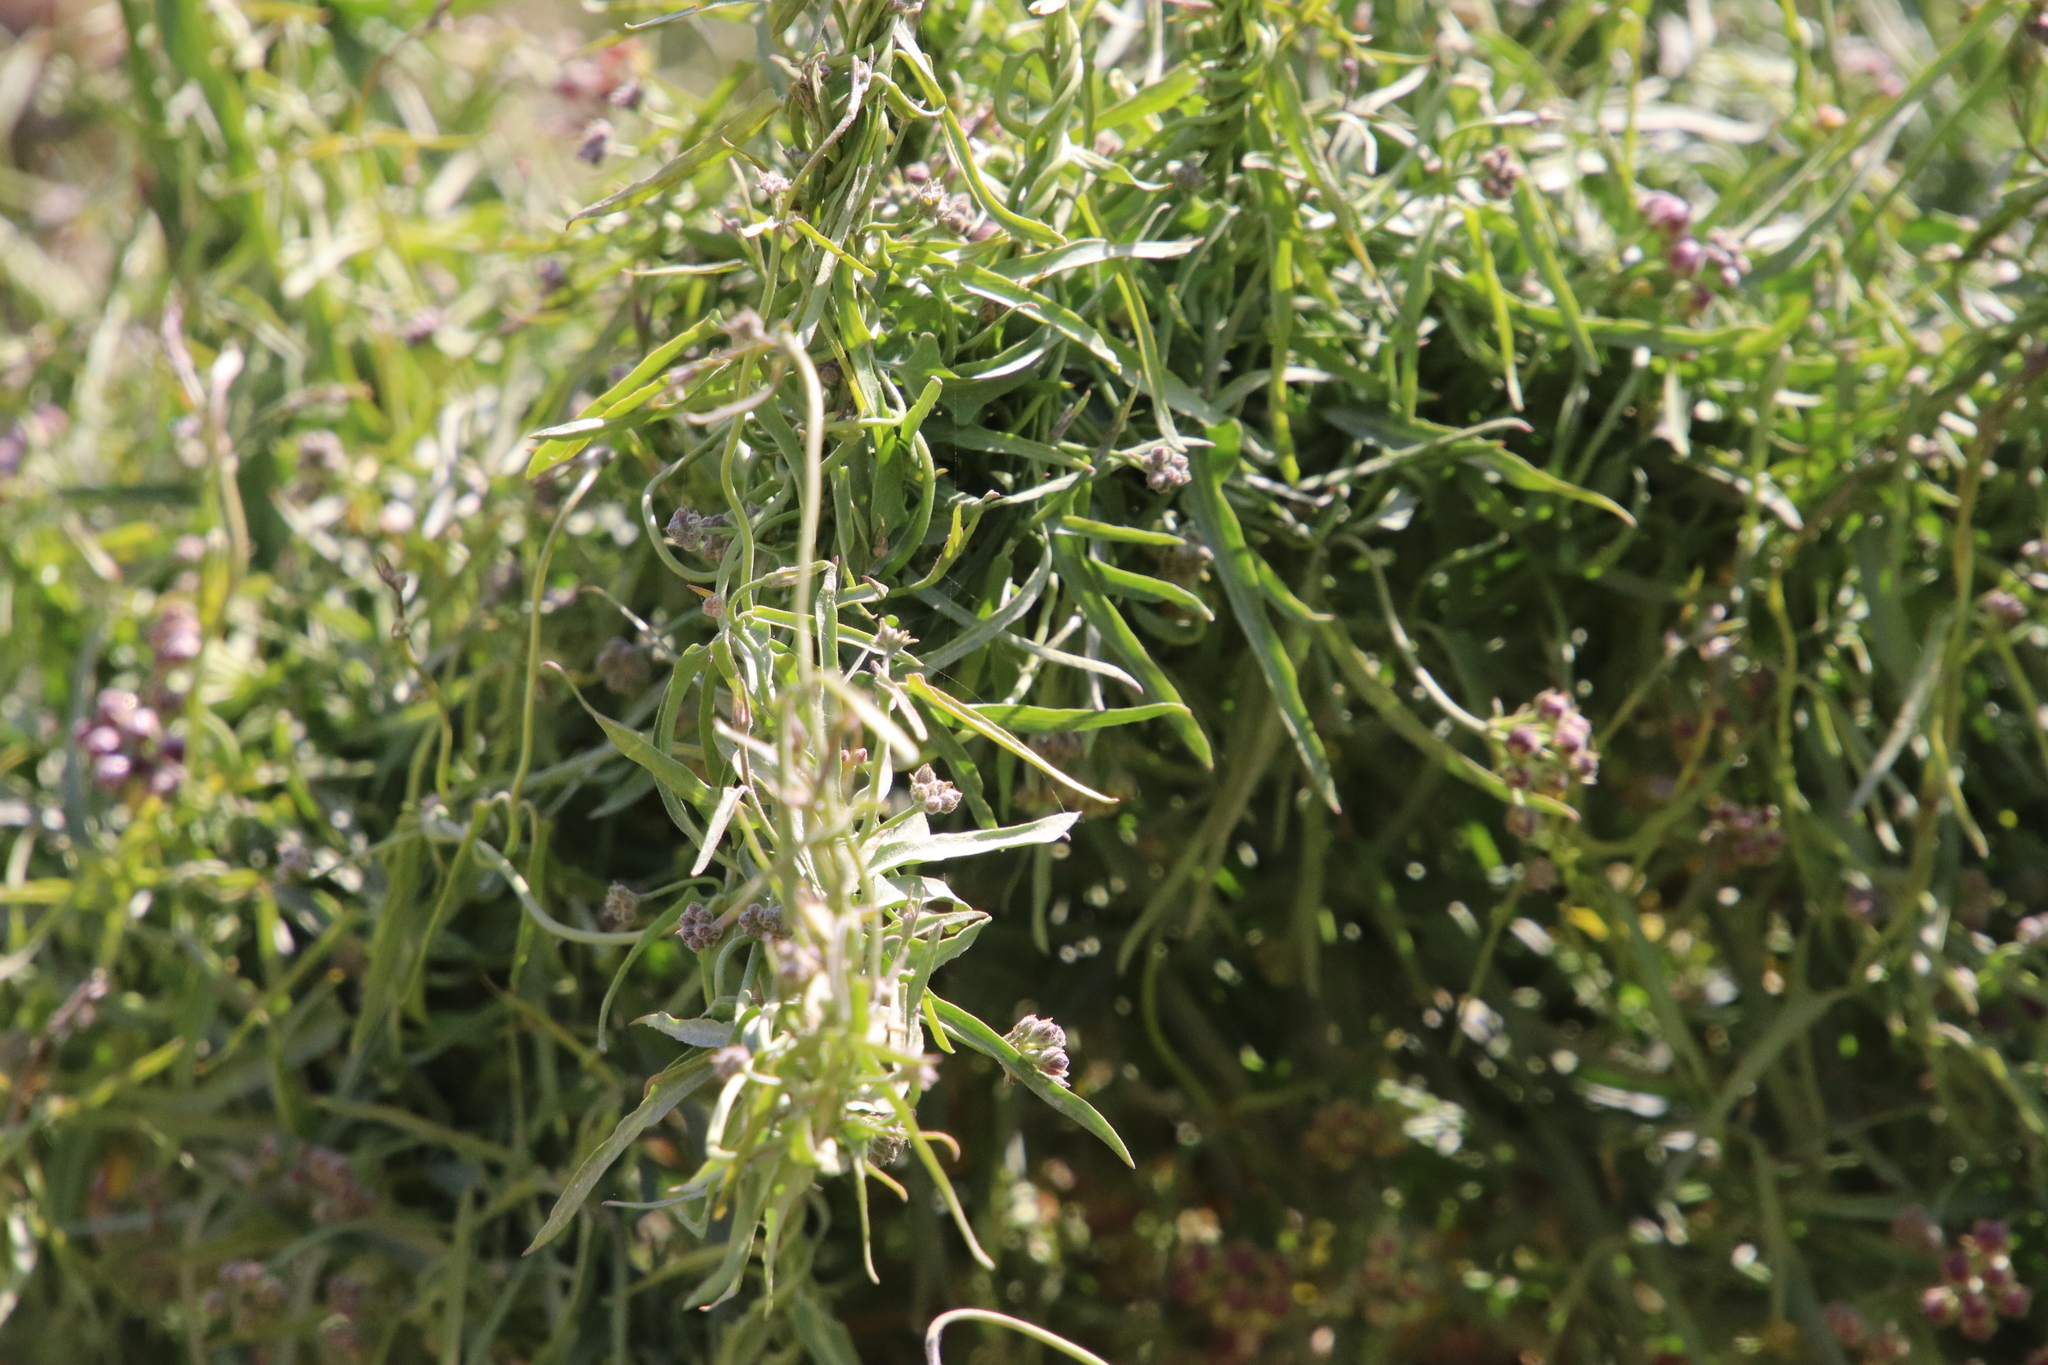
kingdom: Plantae
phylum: Tracheophyta
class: Magnoliopsida
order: Gentianales
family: Apocynaceae
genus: Funastrum
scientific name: Funastrum heterophyllum
